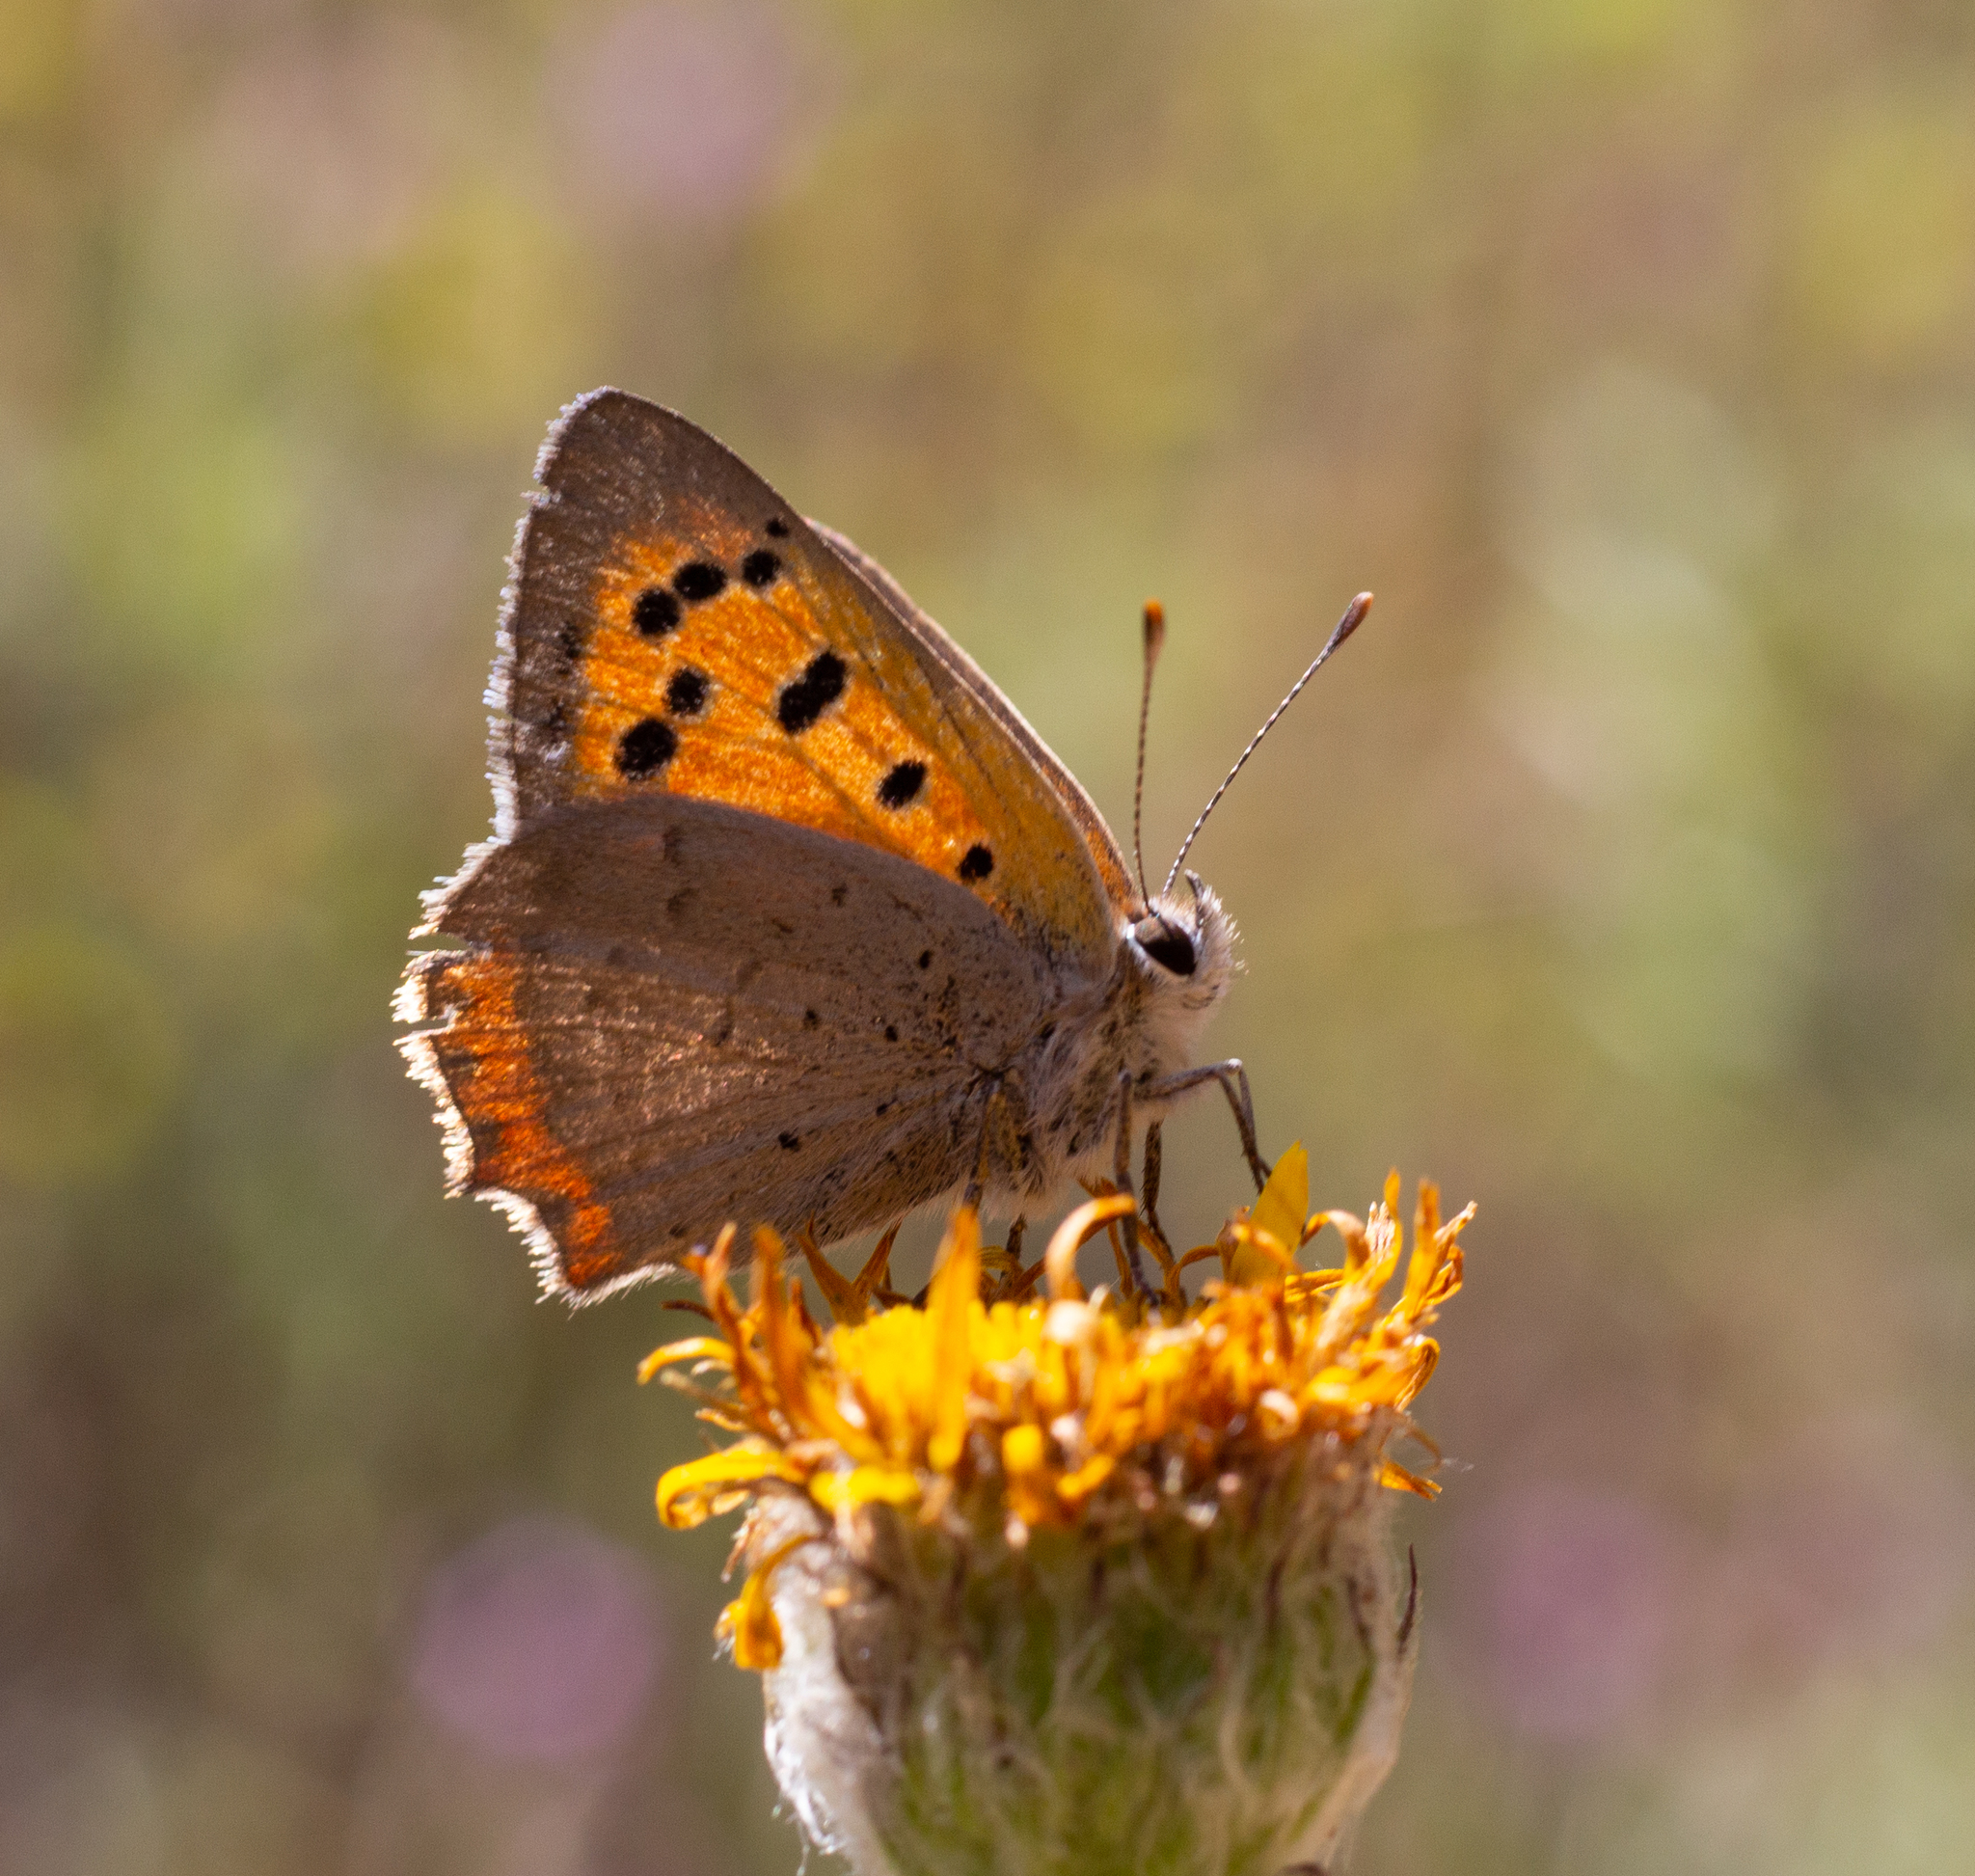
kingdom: Animalia
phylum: Arthropoda
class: Insecta
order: Lepidoptera
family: Lycaenidae
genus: Lycaena
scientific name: Lycaena phlaeas
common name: Small copper
